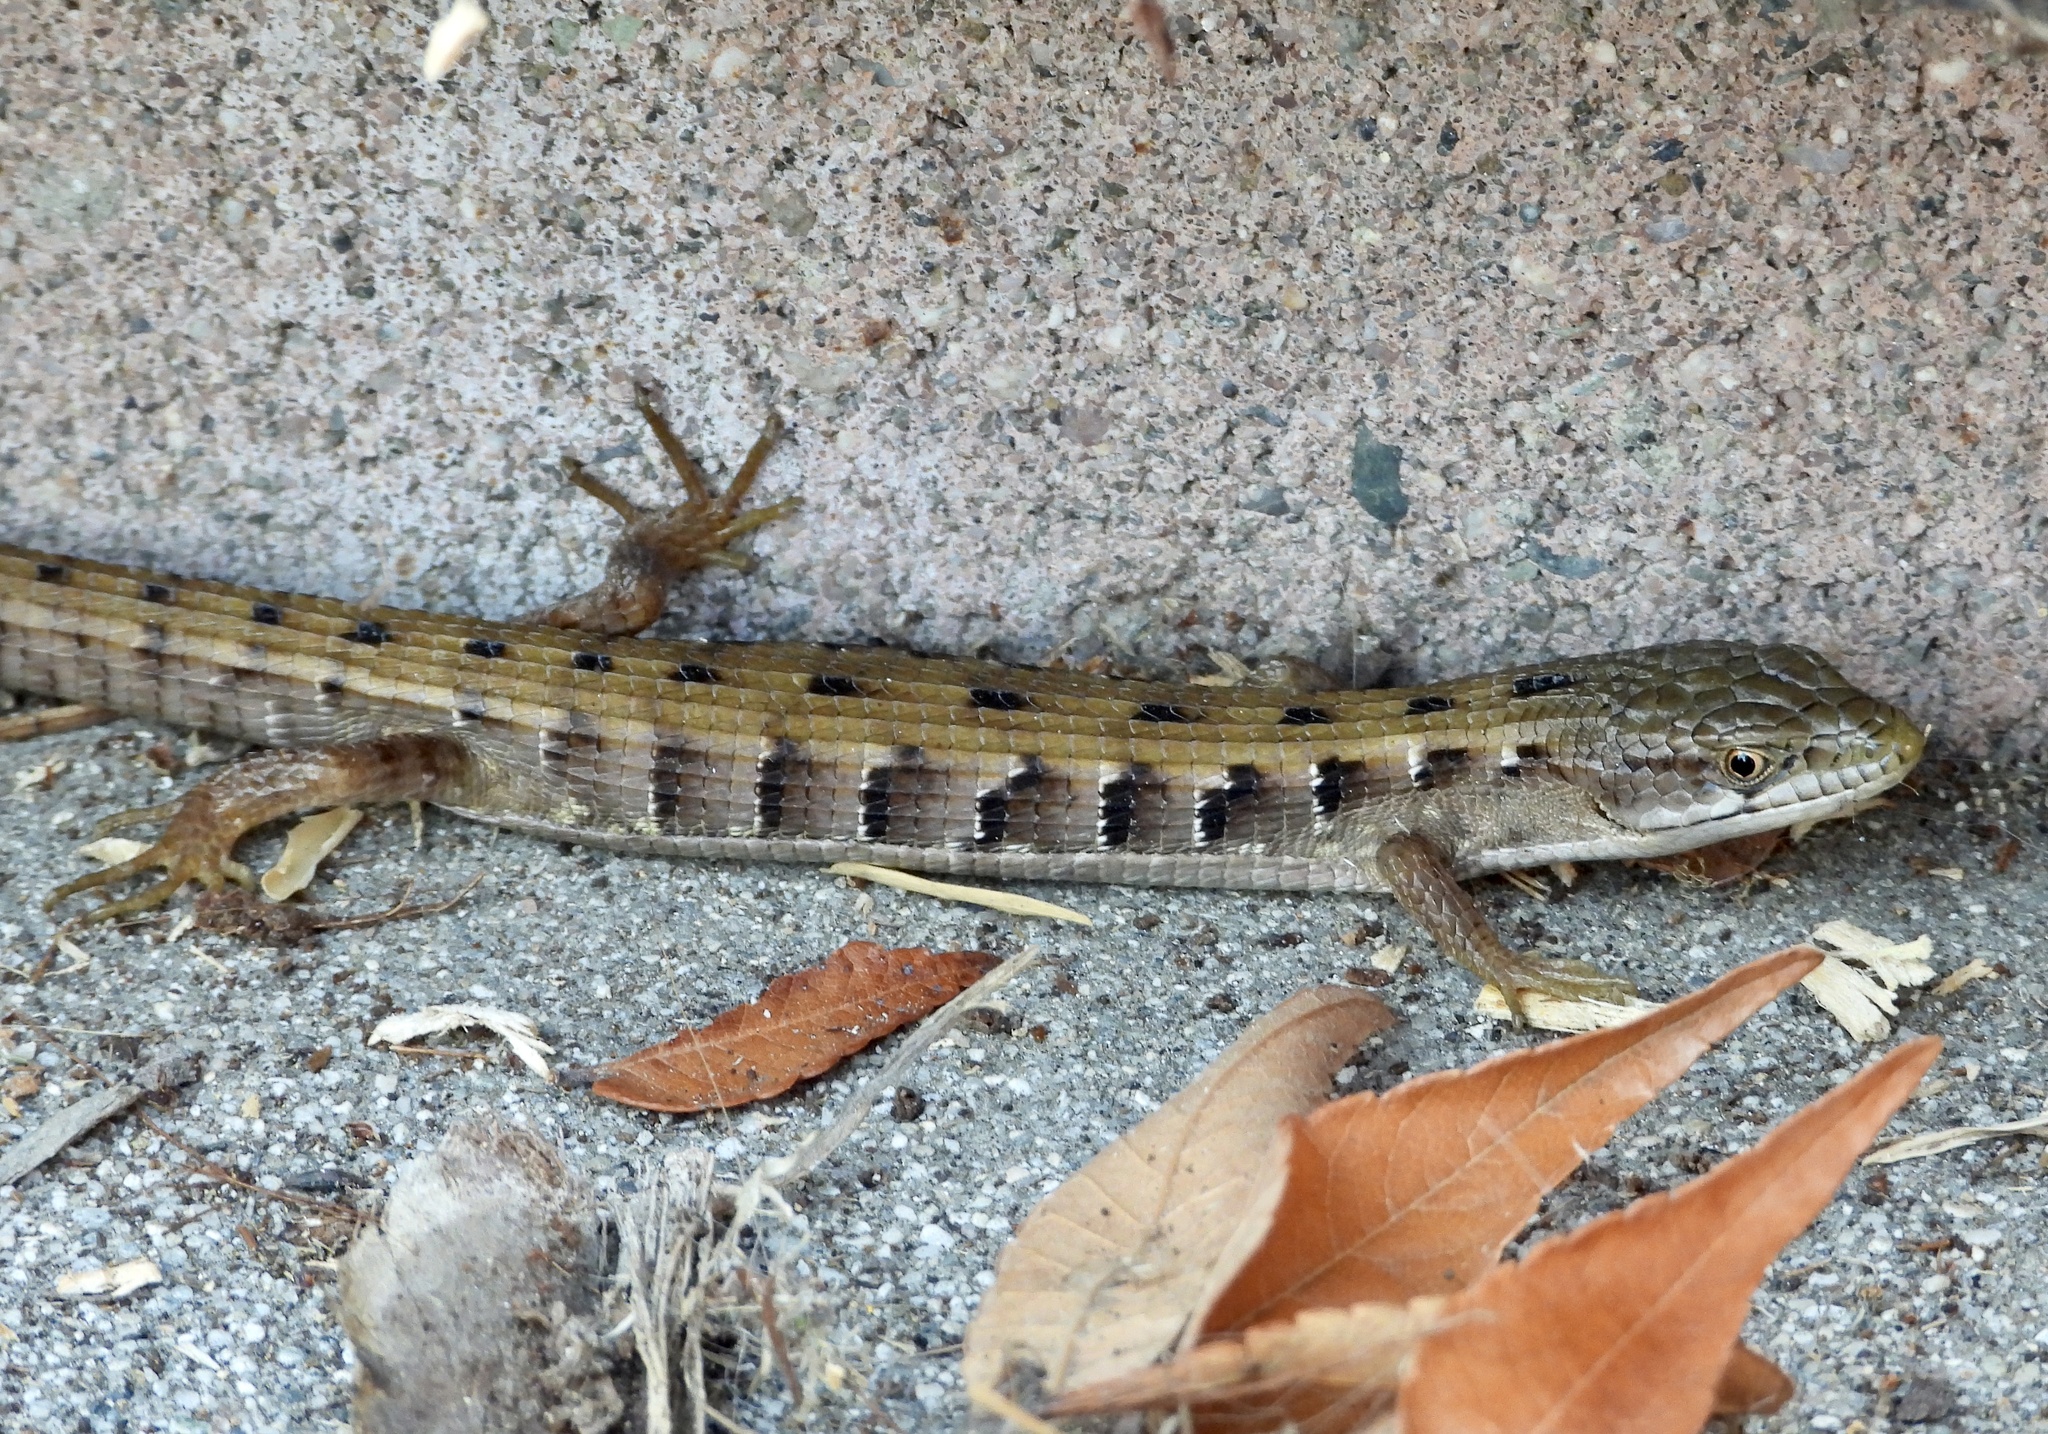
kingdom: Animalia
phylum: Chordata
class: Squamata
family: Anguidae
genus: Elgaria
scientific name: Elgaria multicarinata
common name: Southern alligator lizard
